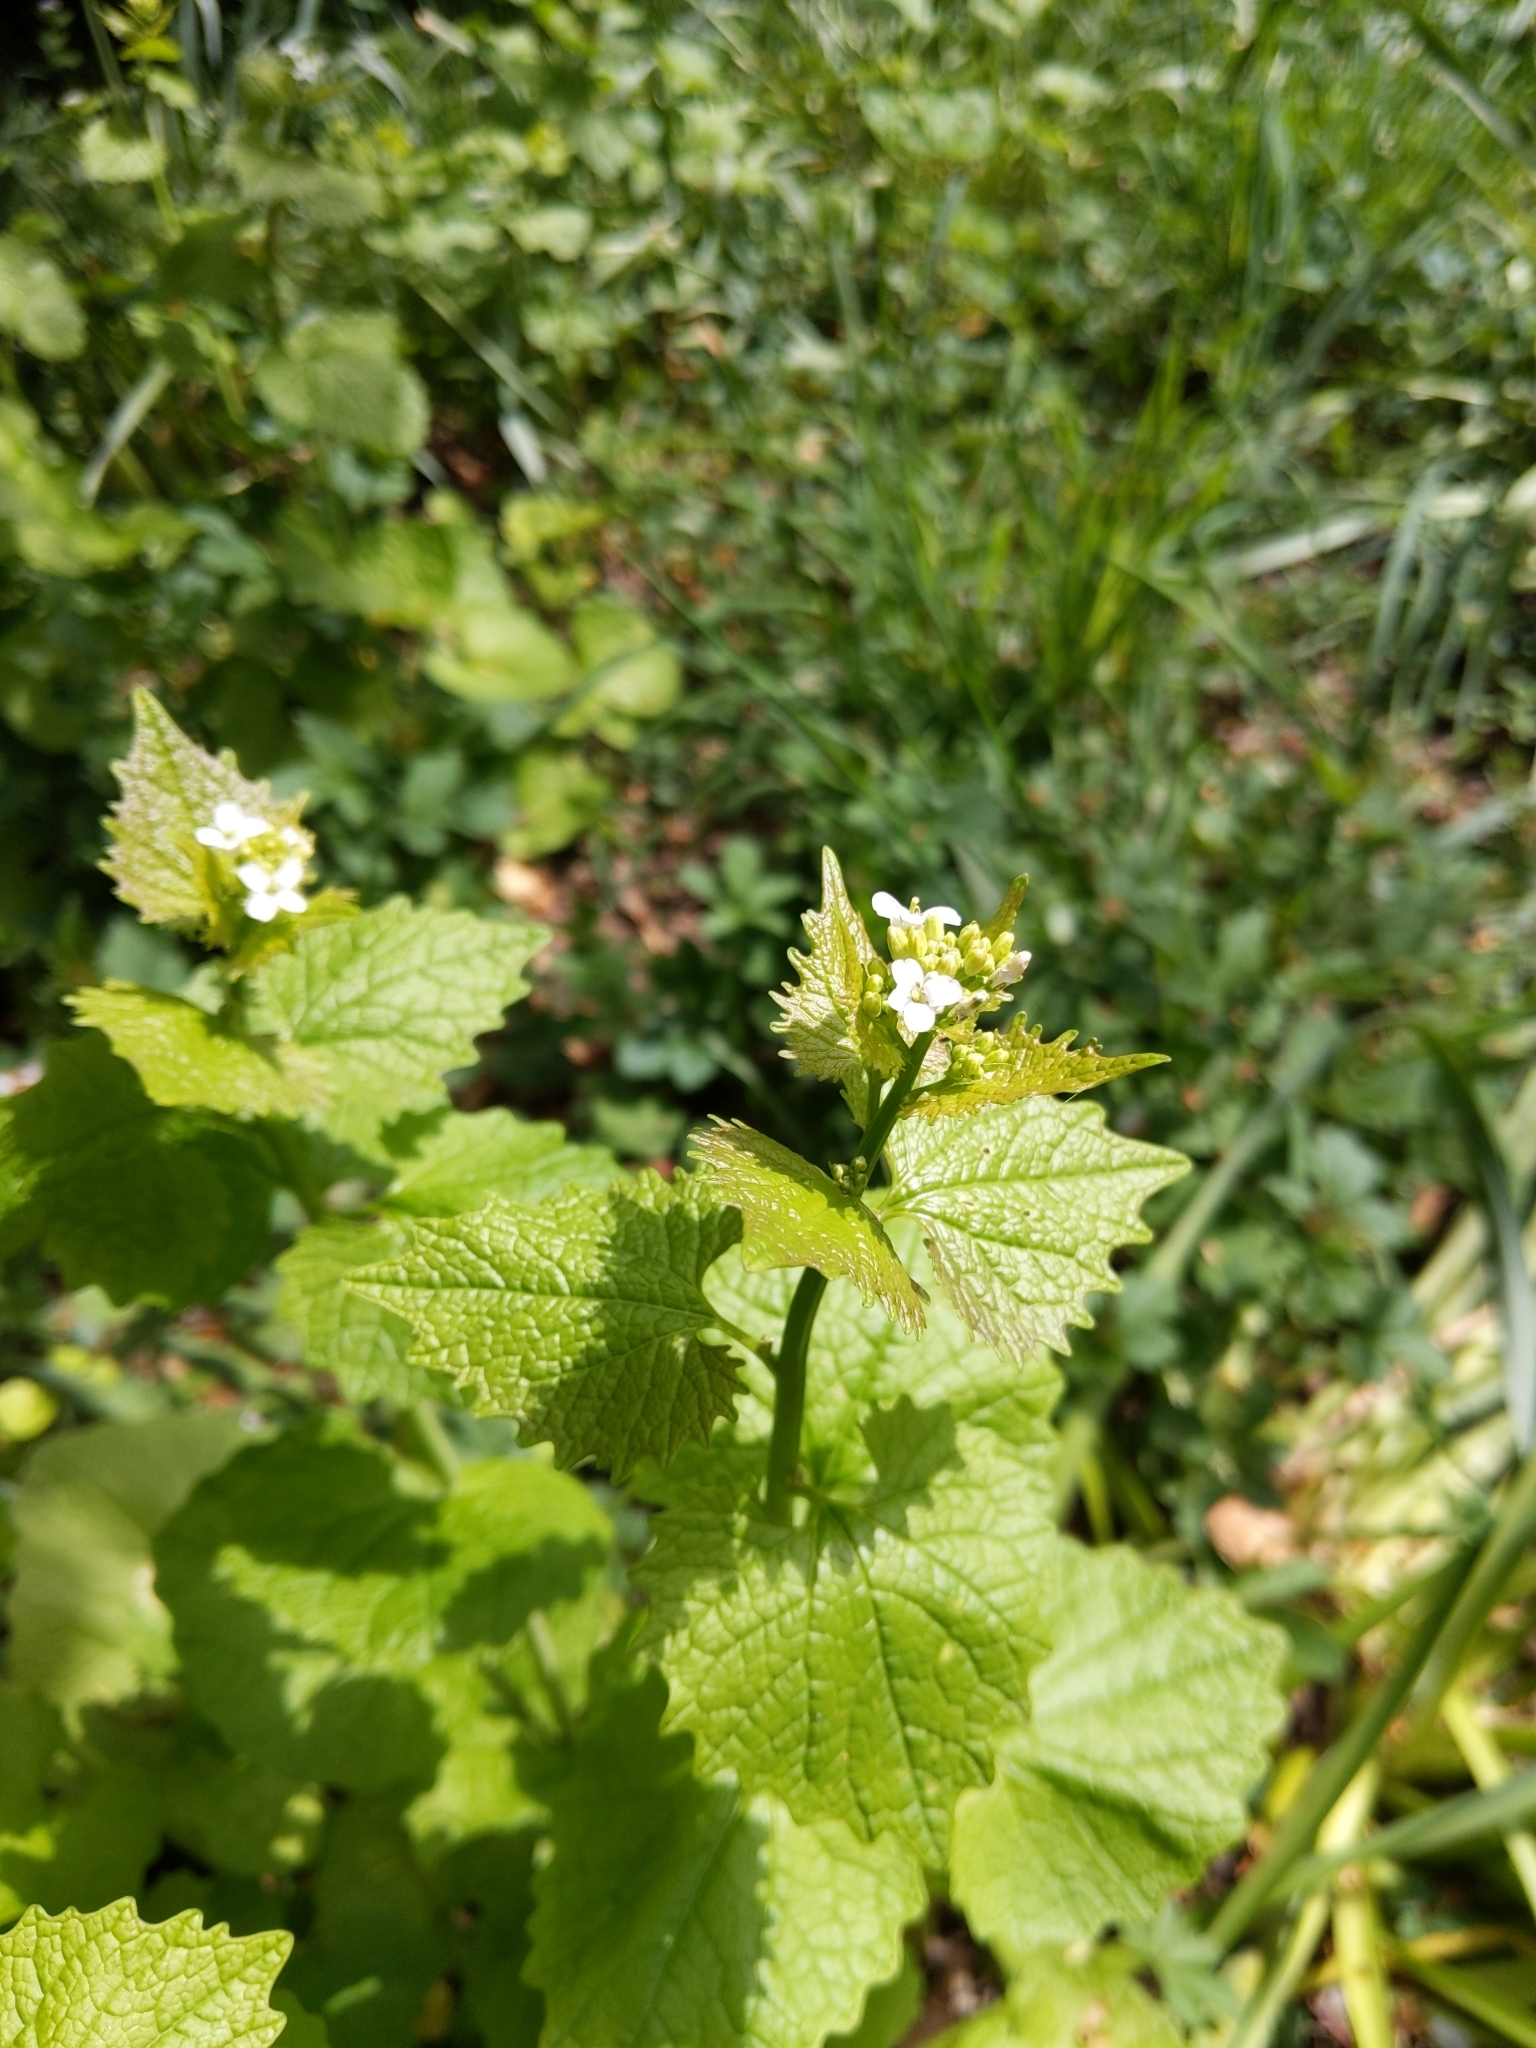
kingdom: Plantae
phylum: Tracheophyta
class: Magnoliopsida
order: Brassicales
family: Brassicaceae
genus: Alliaria
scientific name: Alliaria petiolata
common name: Garlic mustard
